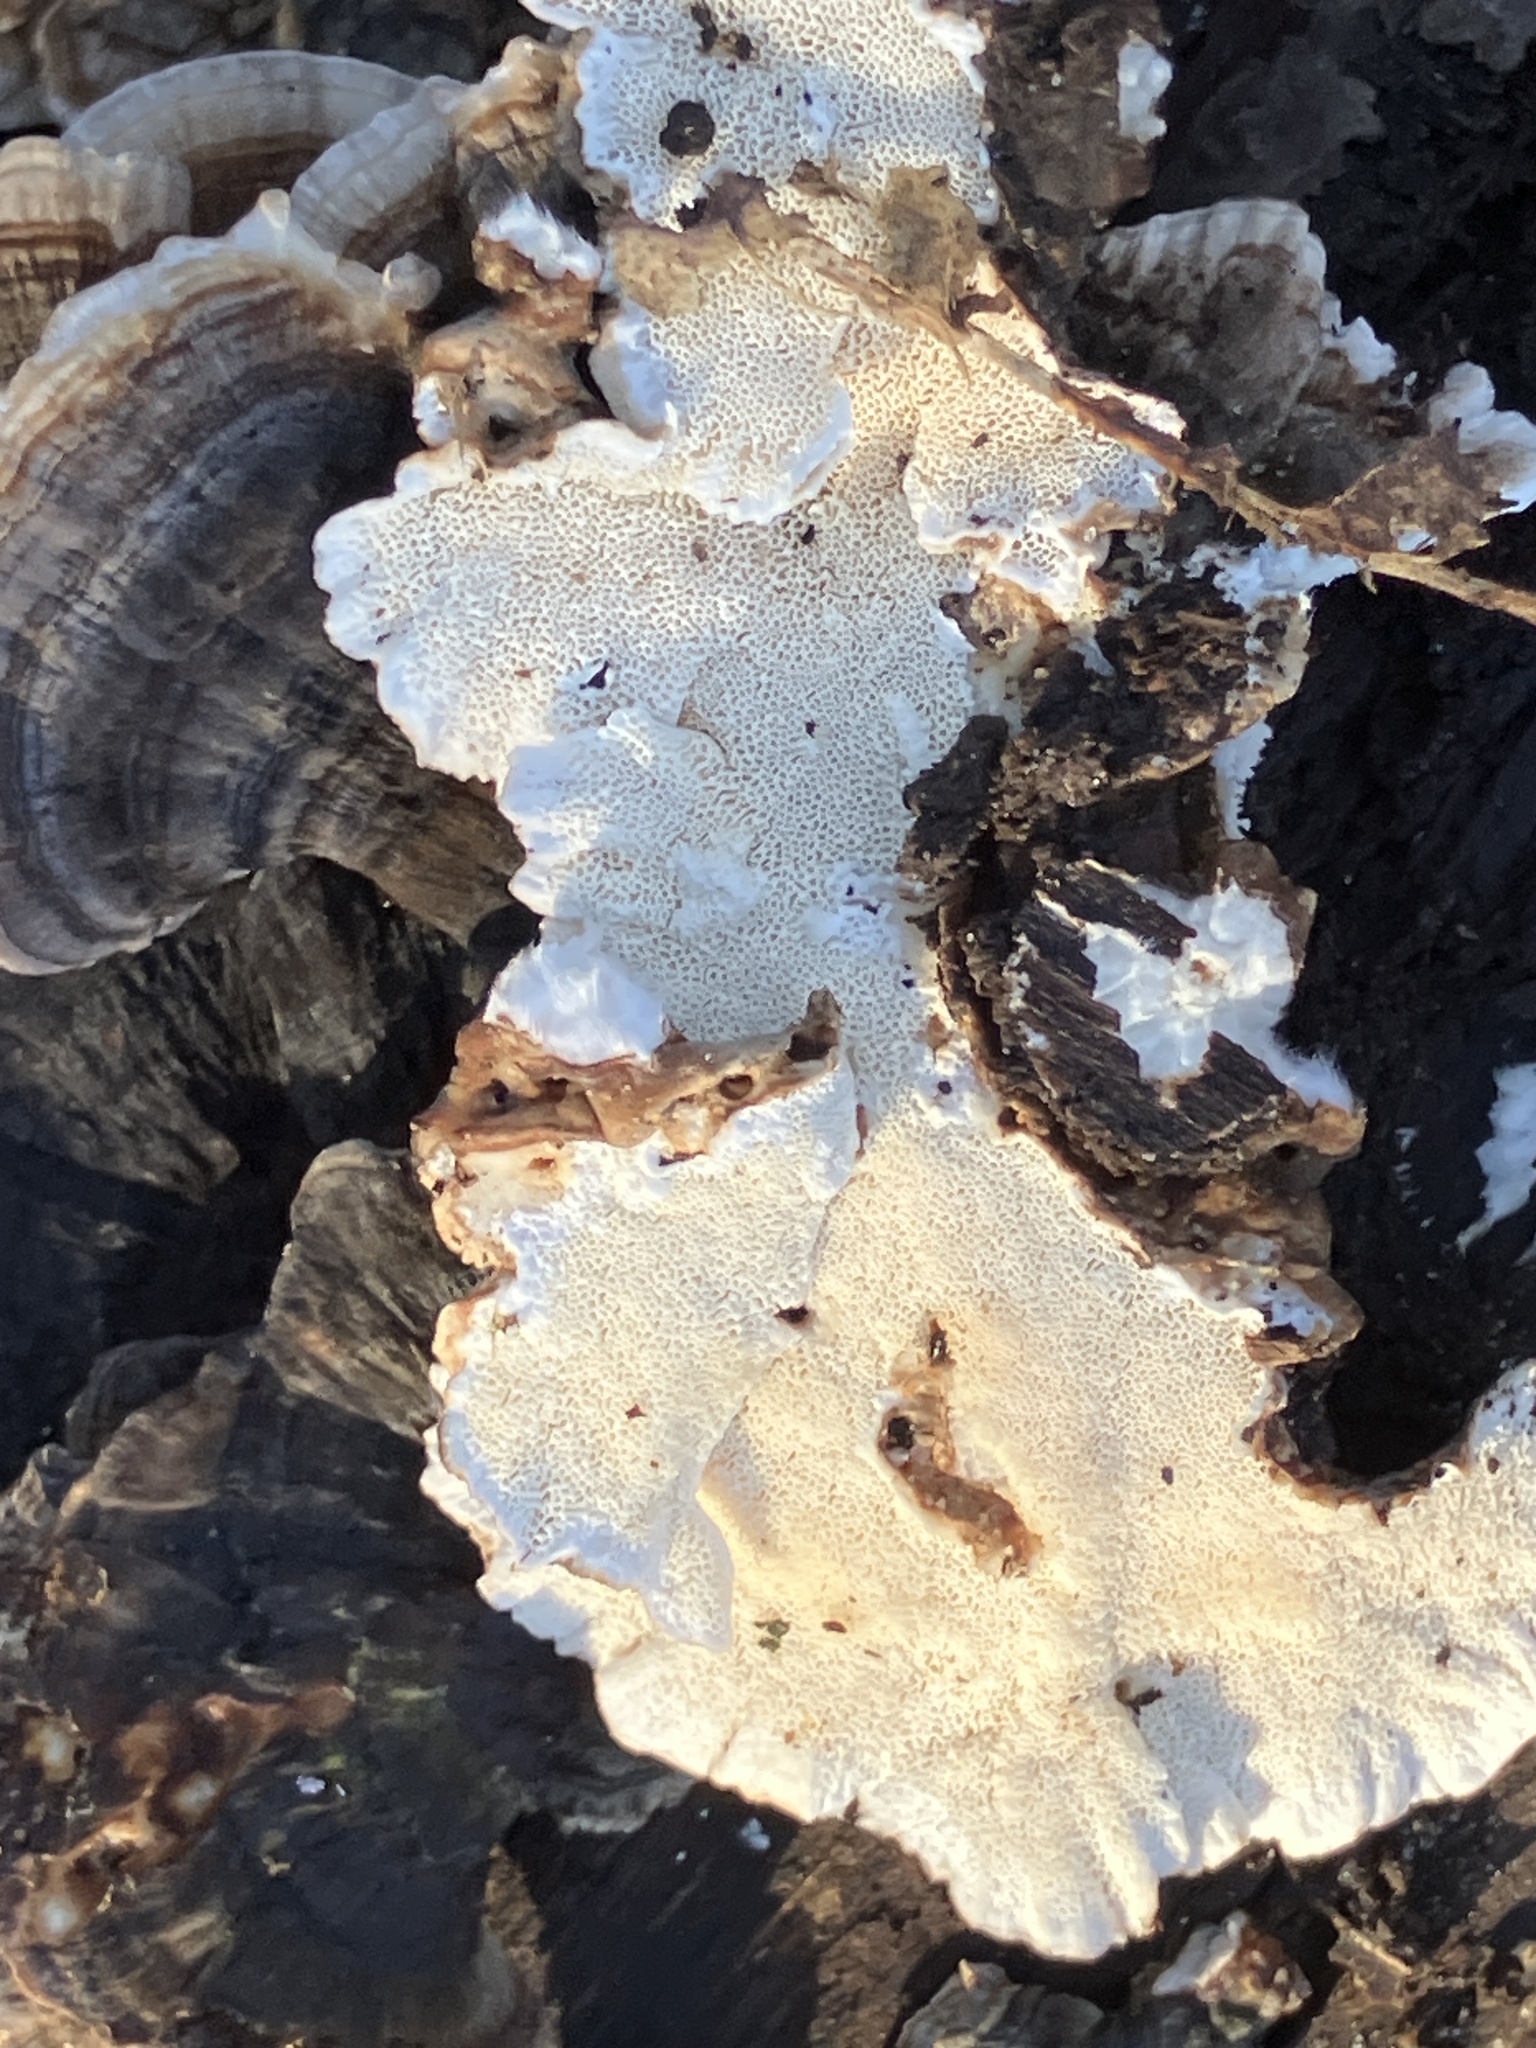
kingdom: Fungi
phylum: Basidiomycota
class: Agaricomycetes
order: Polyporales
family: Polyporaceae
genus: Trametes
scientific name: Trametes versicolor
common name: Turkeytail
